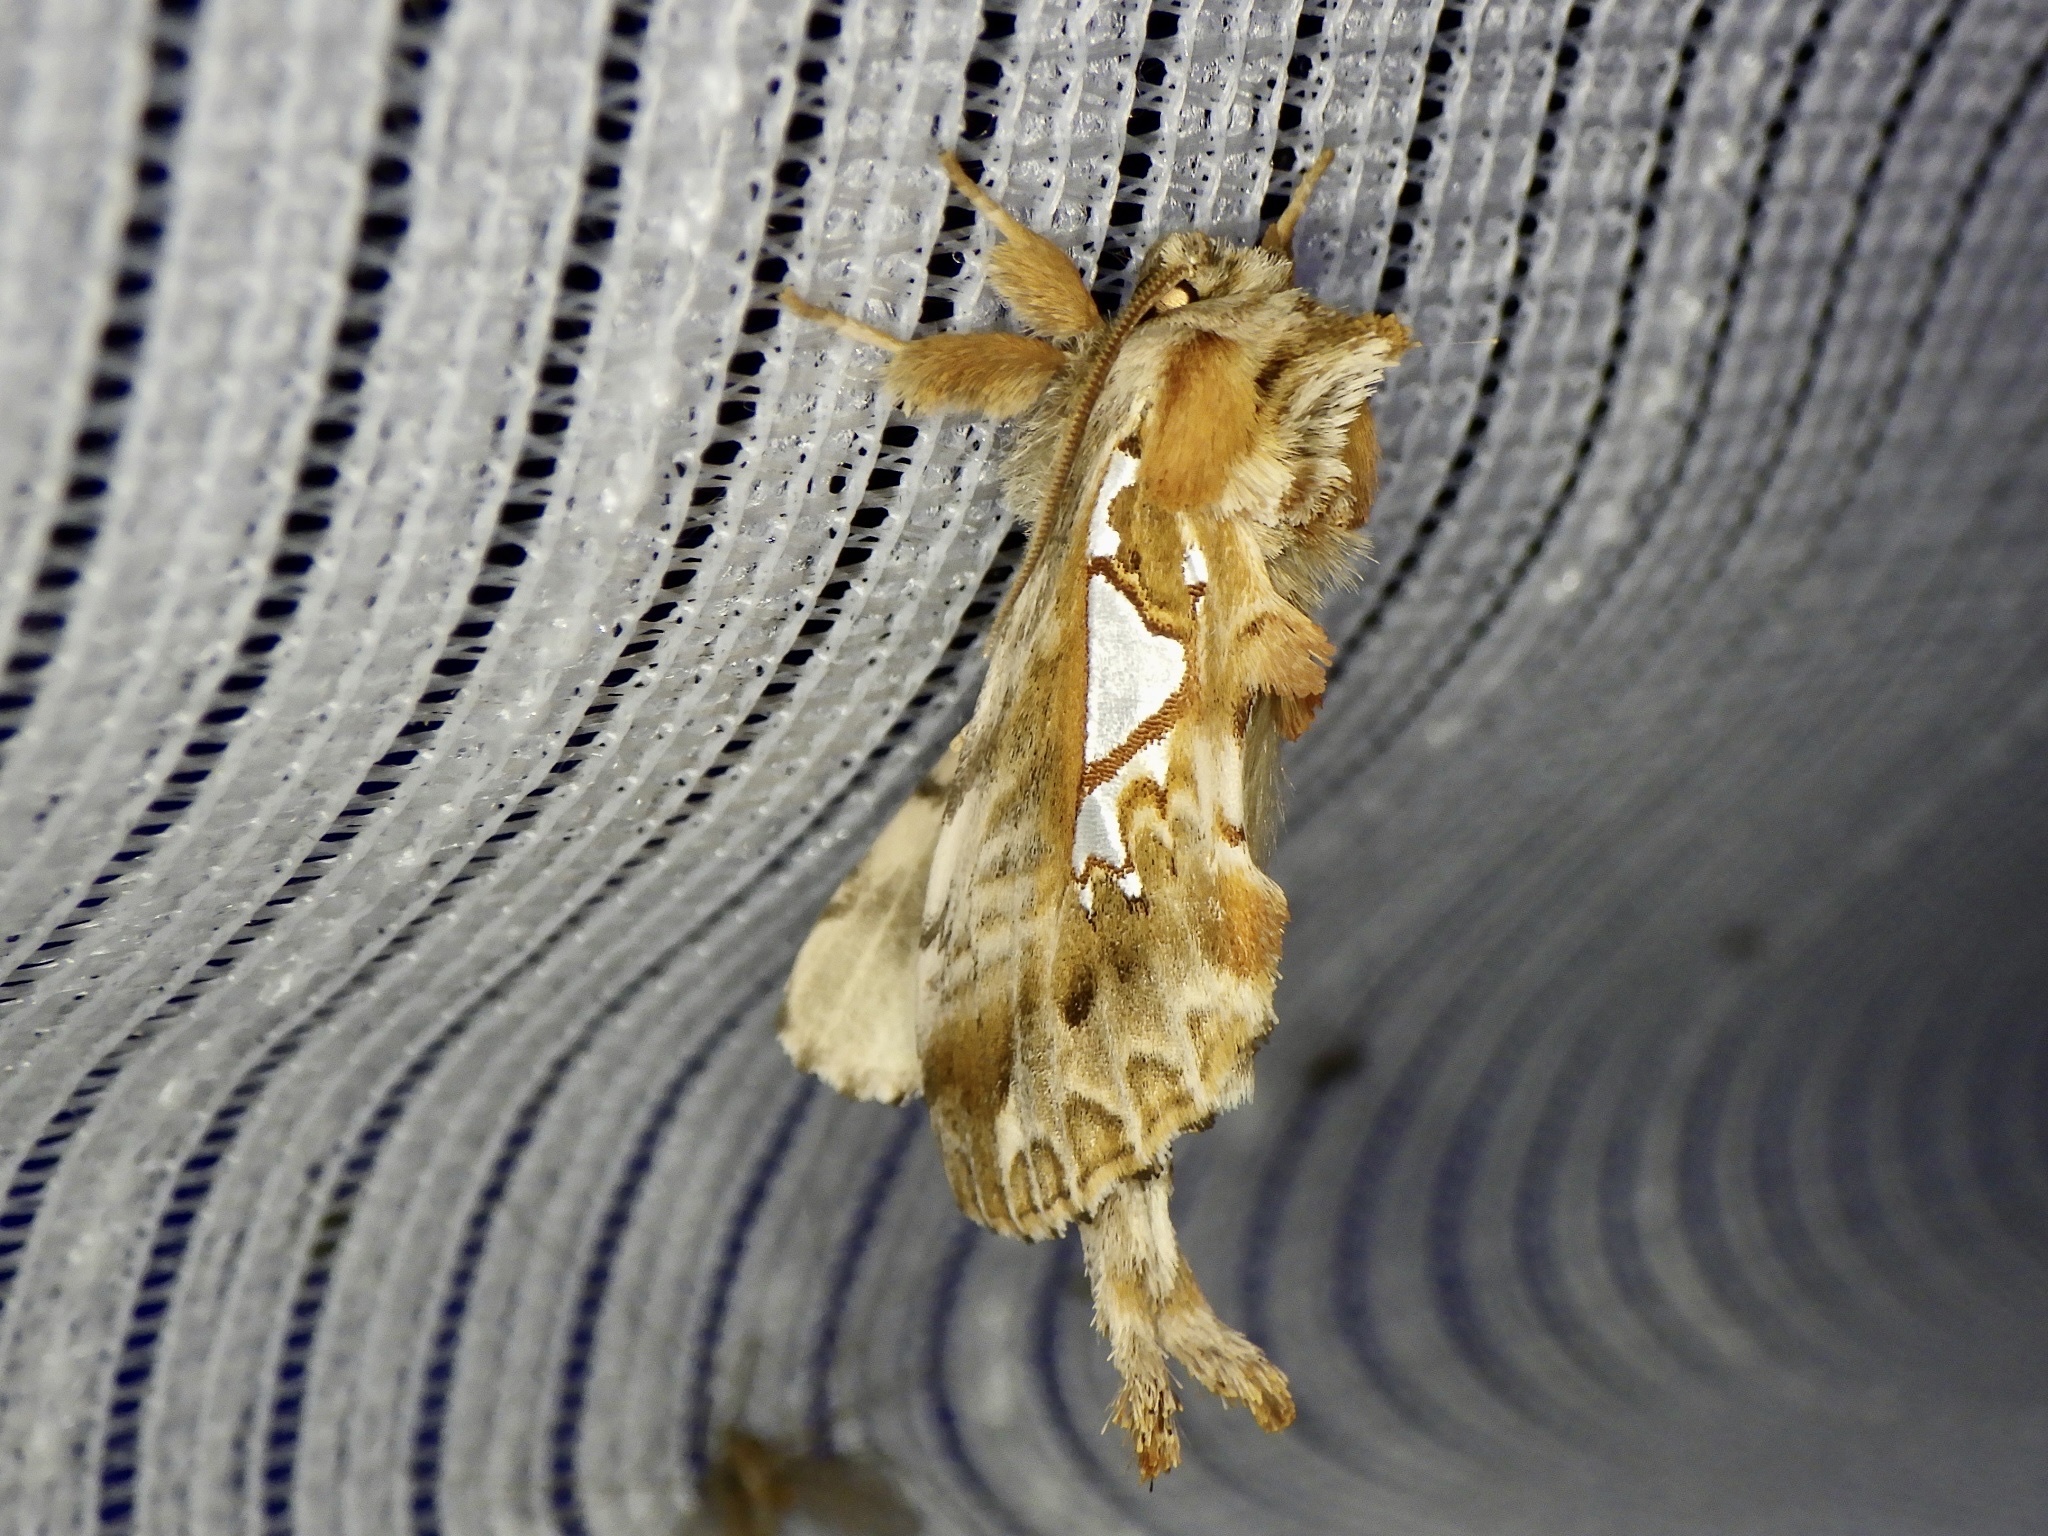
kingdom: Animalia
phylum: Arthropoda
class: Insecta
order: Lepidoptera
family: Notodontidae
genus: Spatalia
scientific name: Spatalia doerriesi
